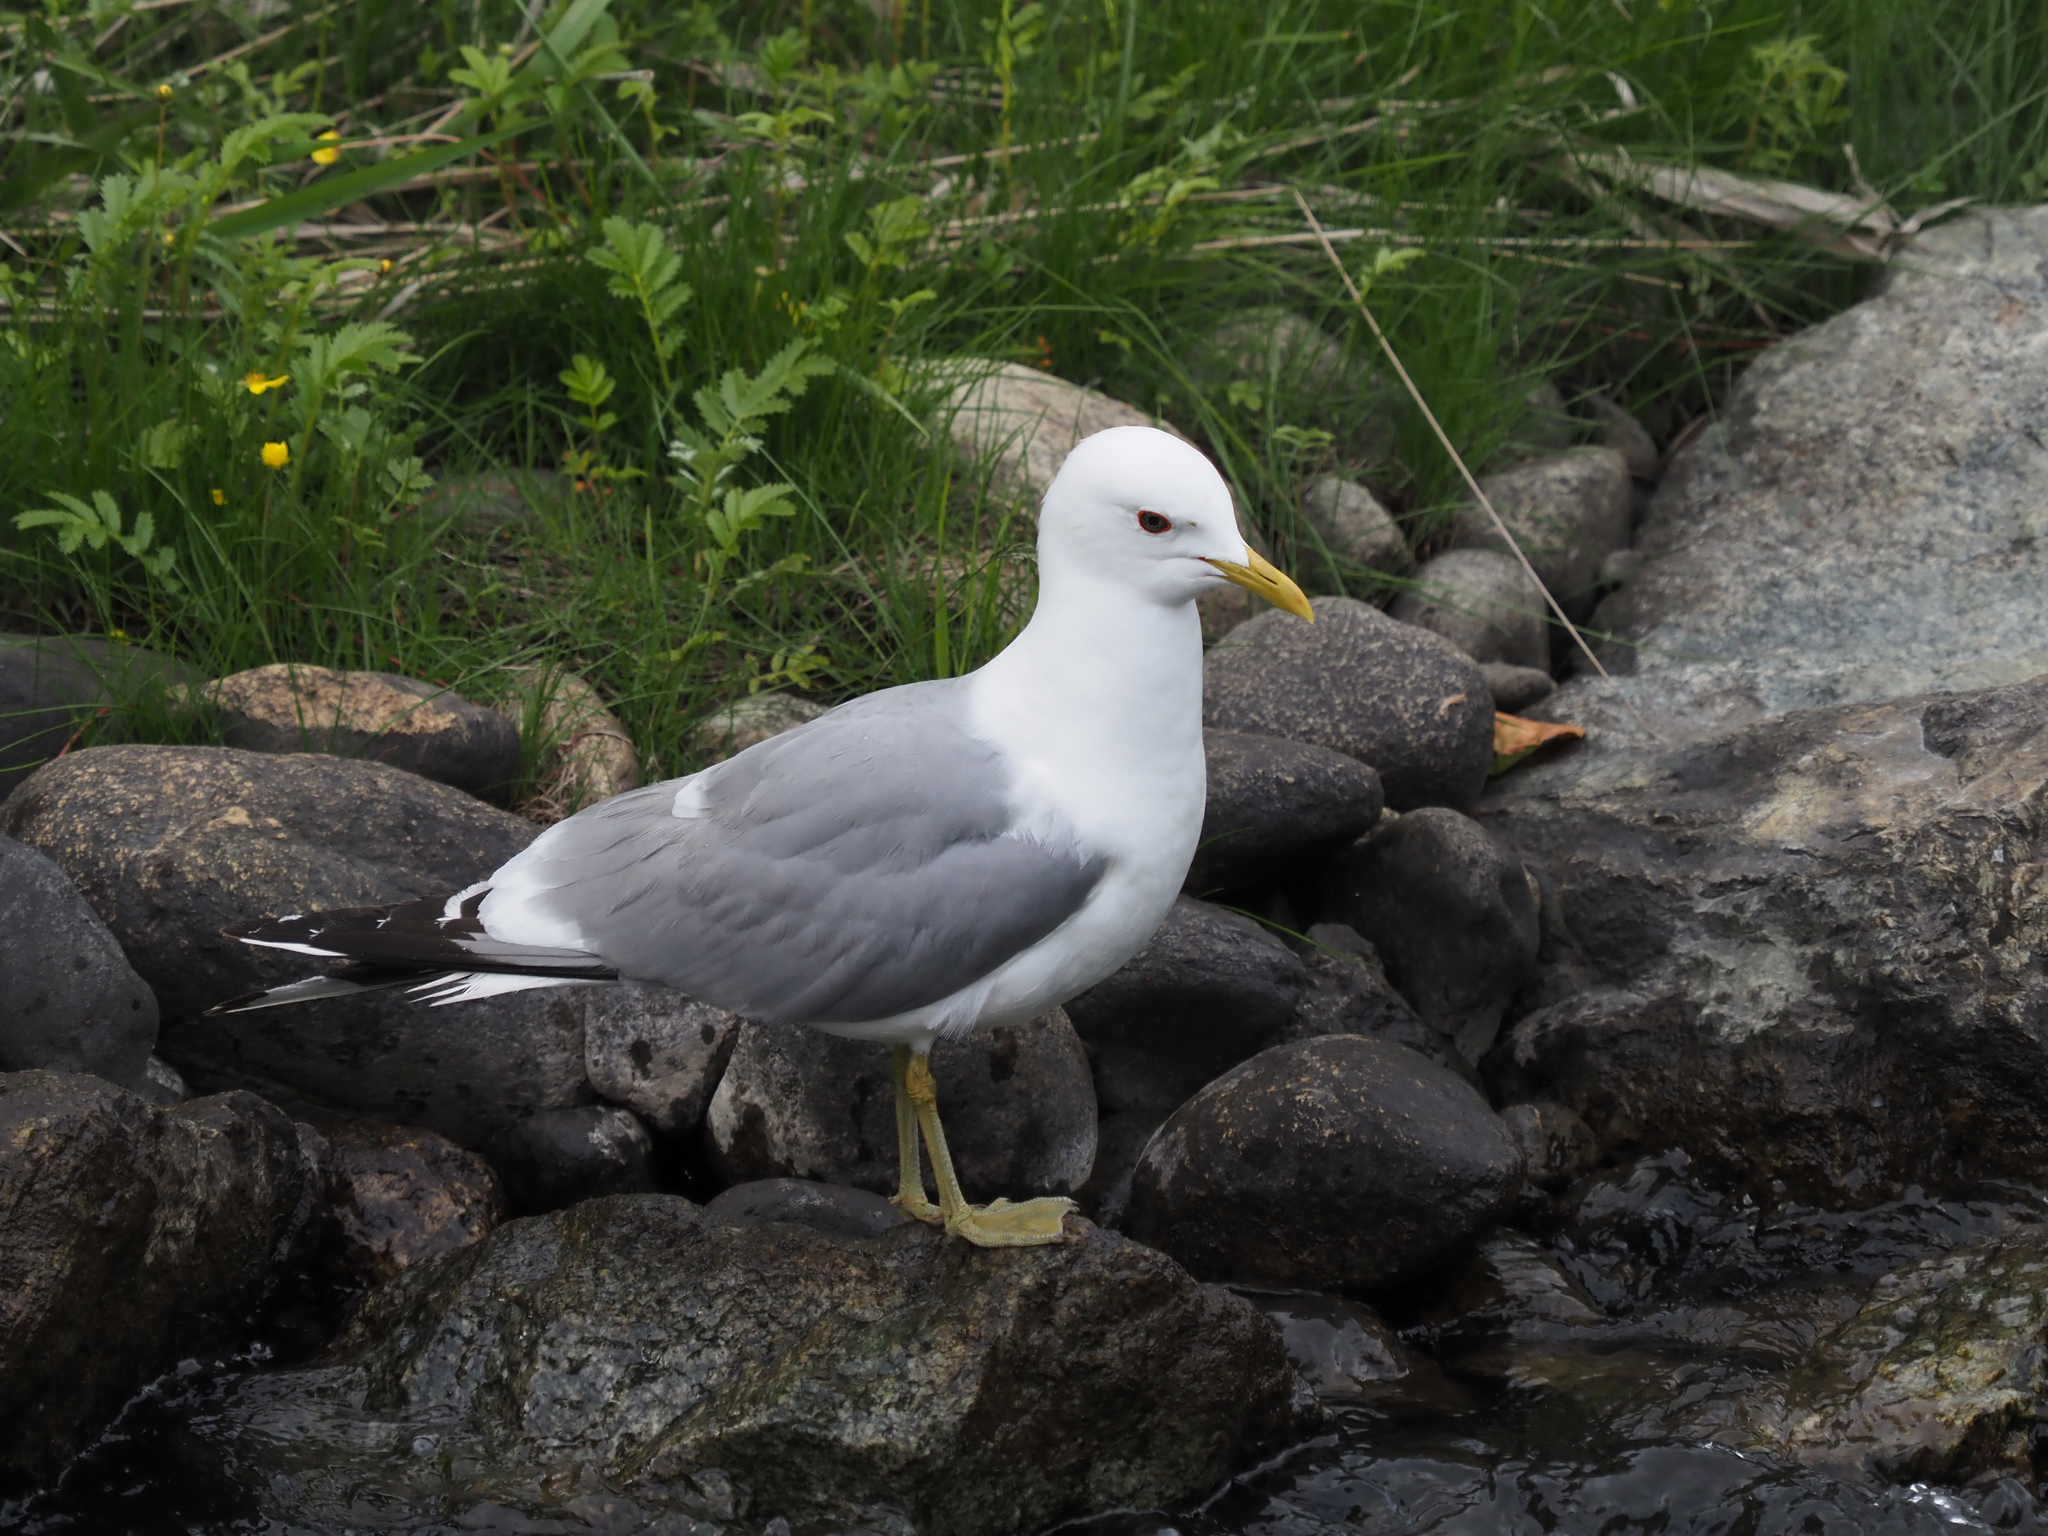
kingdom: Animalia
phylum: Chordata
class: Aves
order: Charadriiformes
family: Laridae
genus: Larus
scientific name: Larus brachyrhynchus
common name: Short-billed gull
